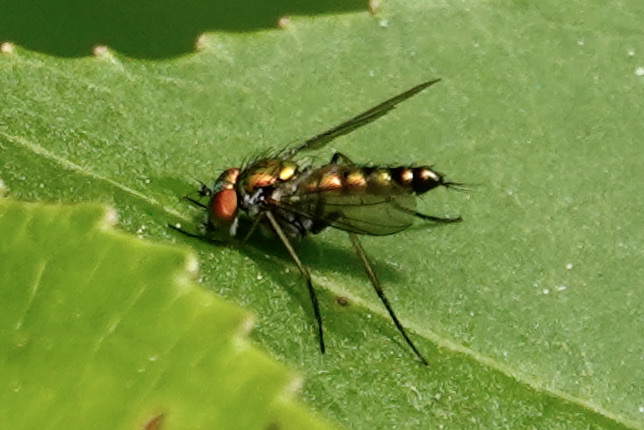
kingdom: Animalia
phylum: Arthropoda
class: Insecta
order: Diptera
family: Dolichopodidae
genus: Condylostylus
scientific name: Condylostylus caudatus
